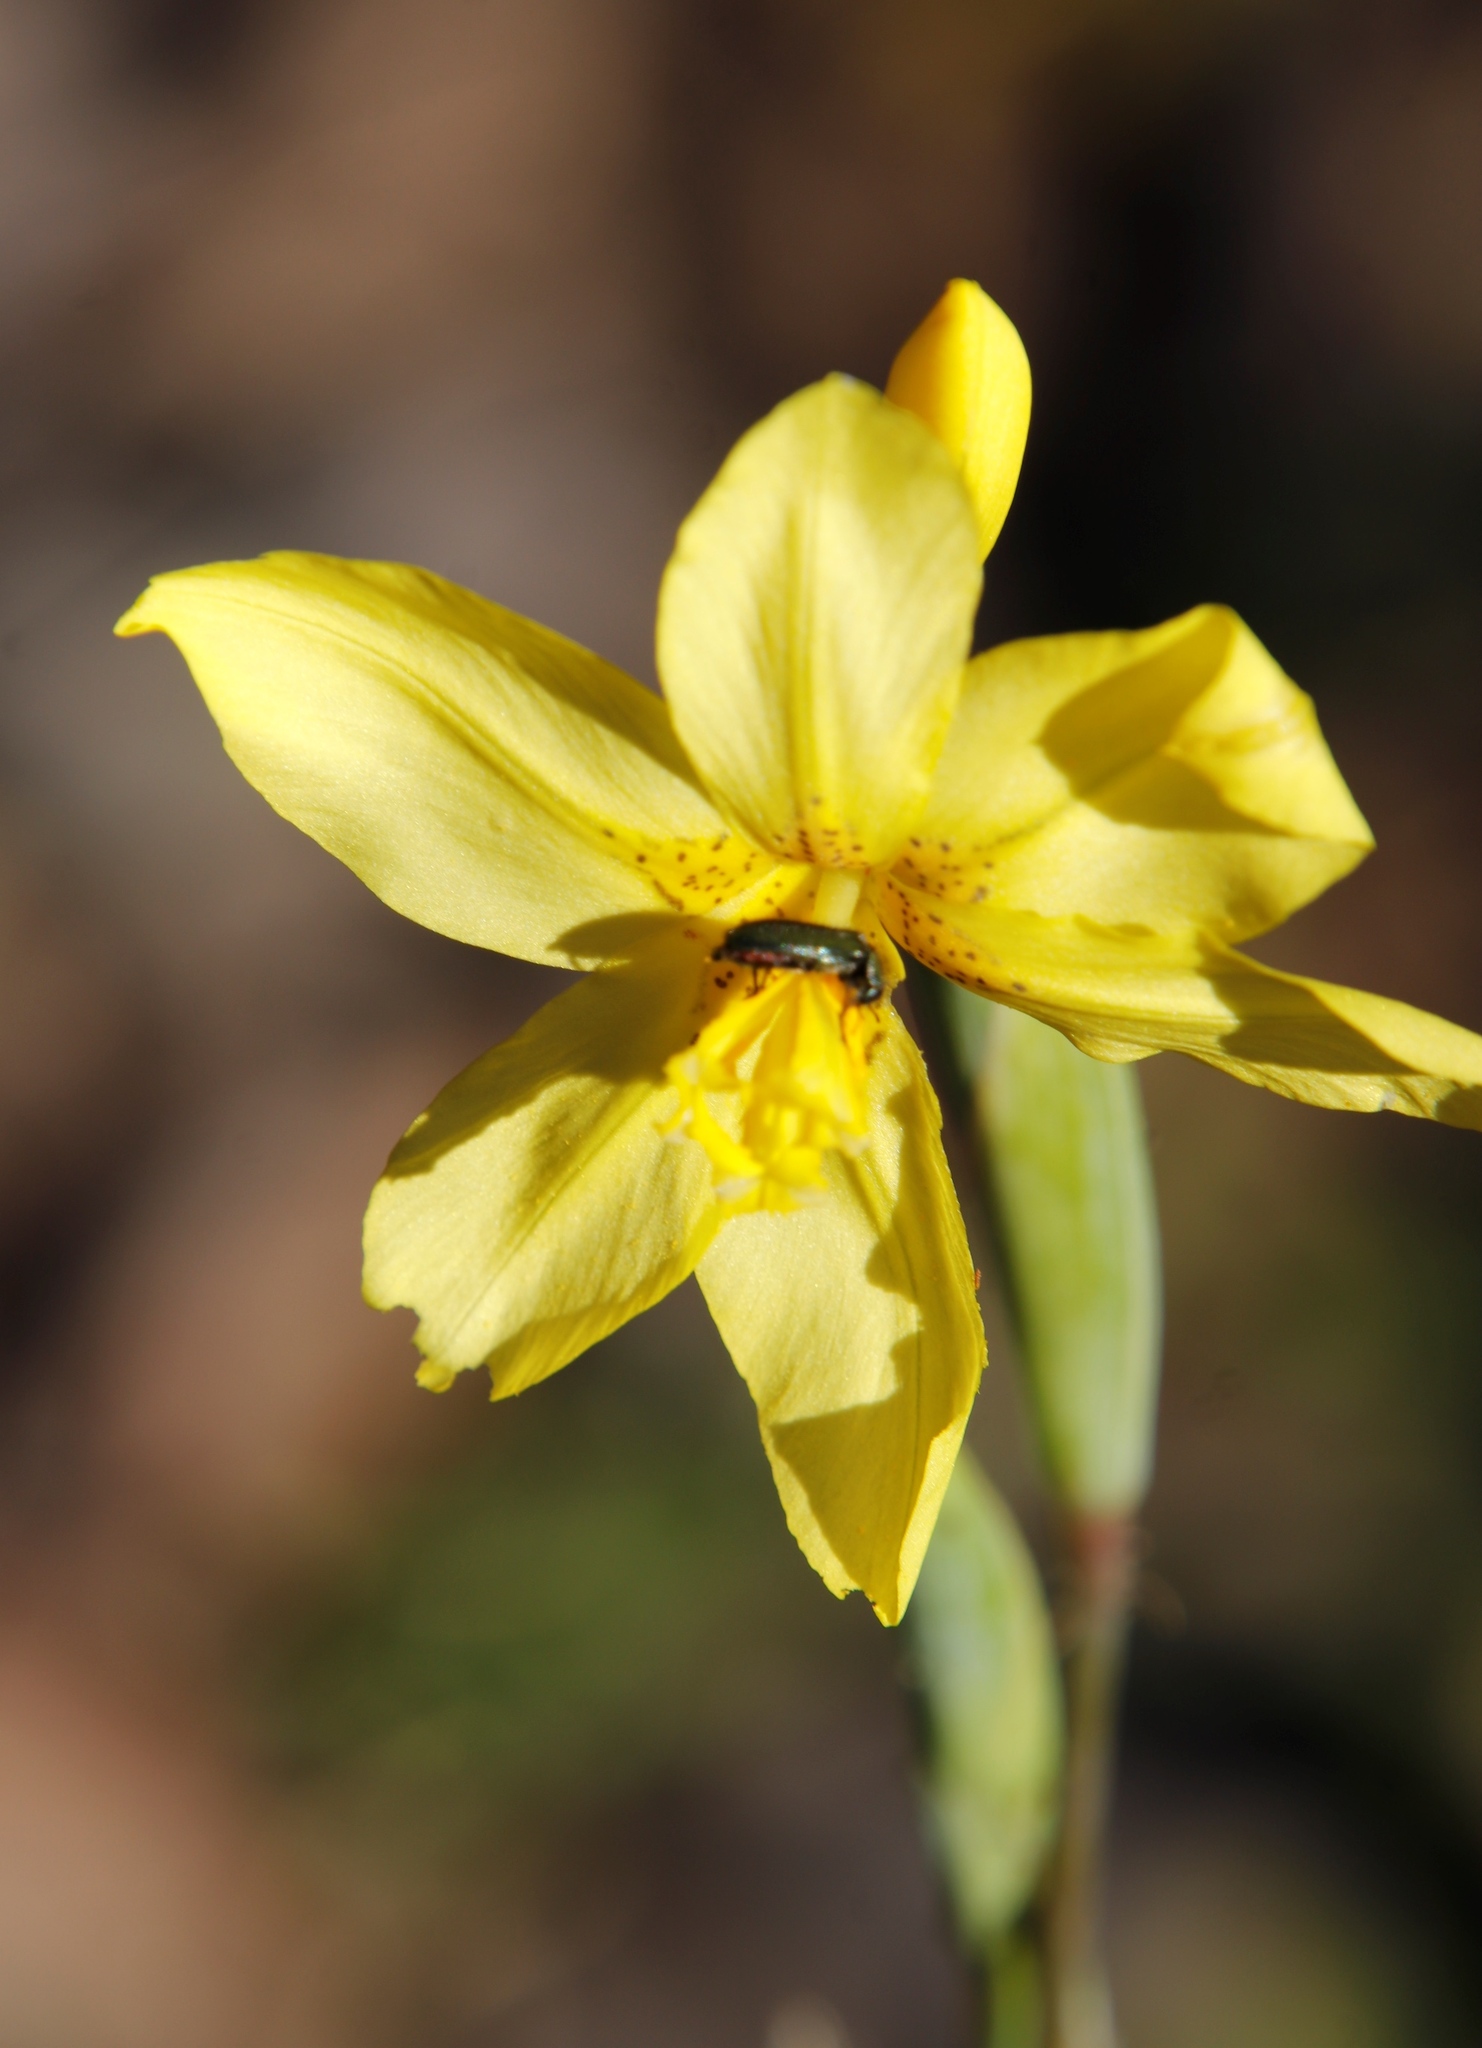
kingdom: Plantae
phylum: Tracheophyta
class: Liliopsida
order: Asparagales
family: Iridaceae
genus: Moraea
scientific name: Moraea marlothii
